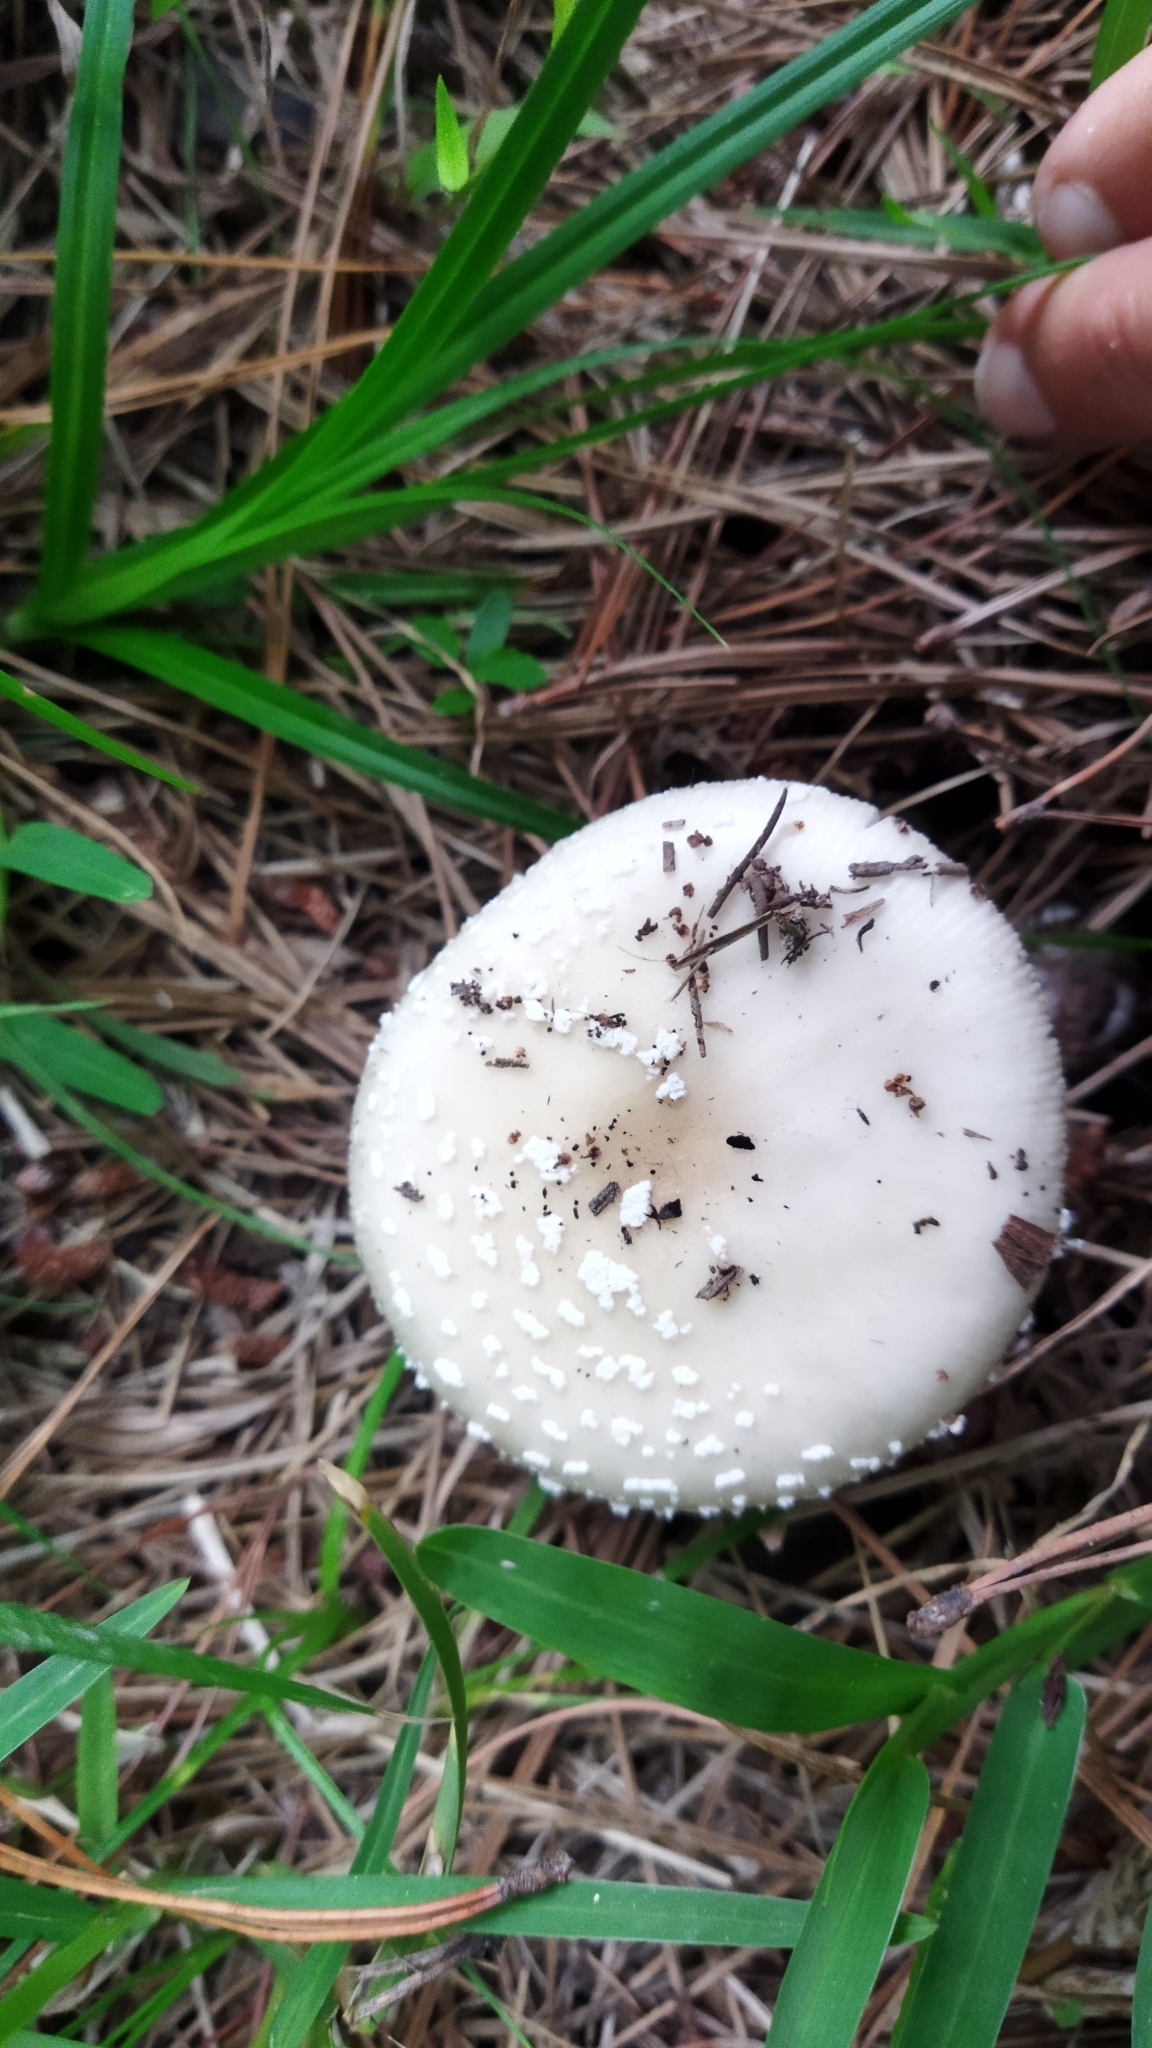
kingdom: Fungi
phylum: Basidiomycota
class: Agaricomycetes
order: Agaricales
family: Amanitaceae
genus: Amanita
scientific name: Amanita pantherina
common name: Panthercap
